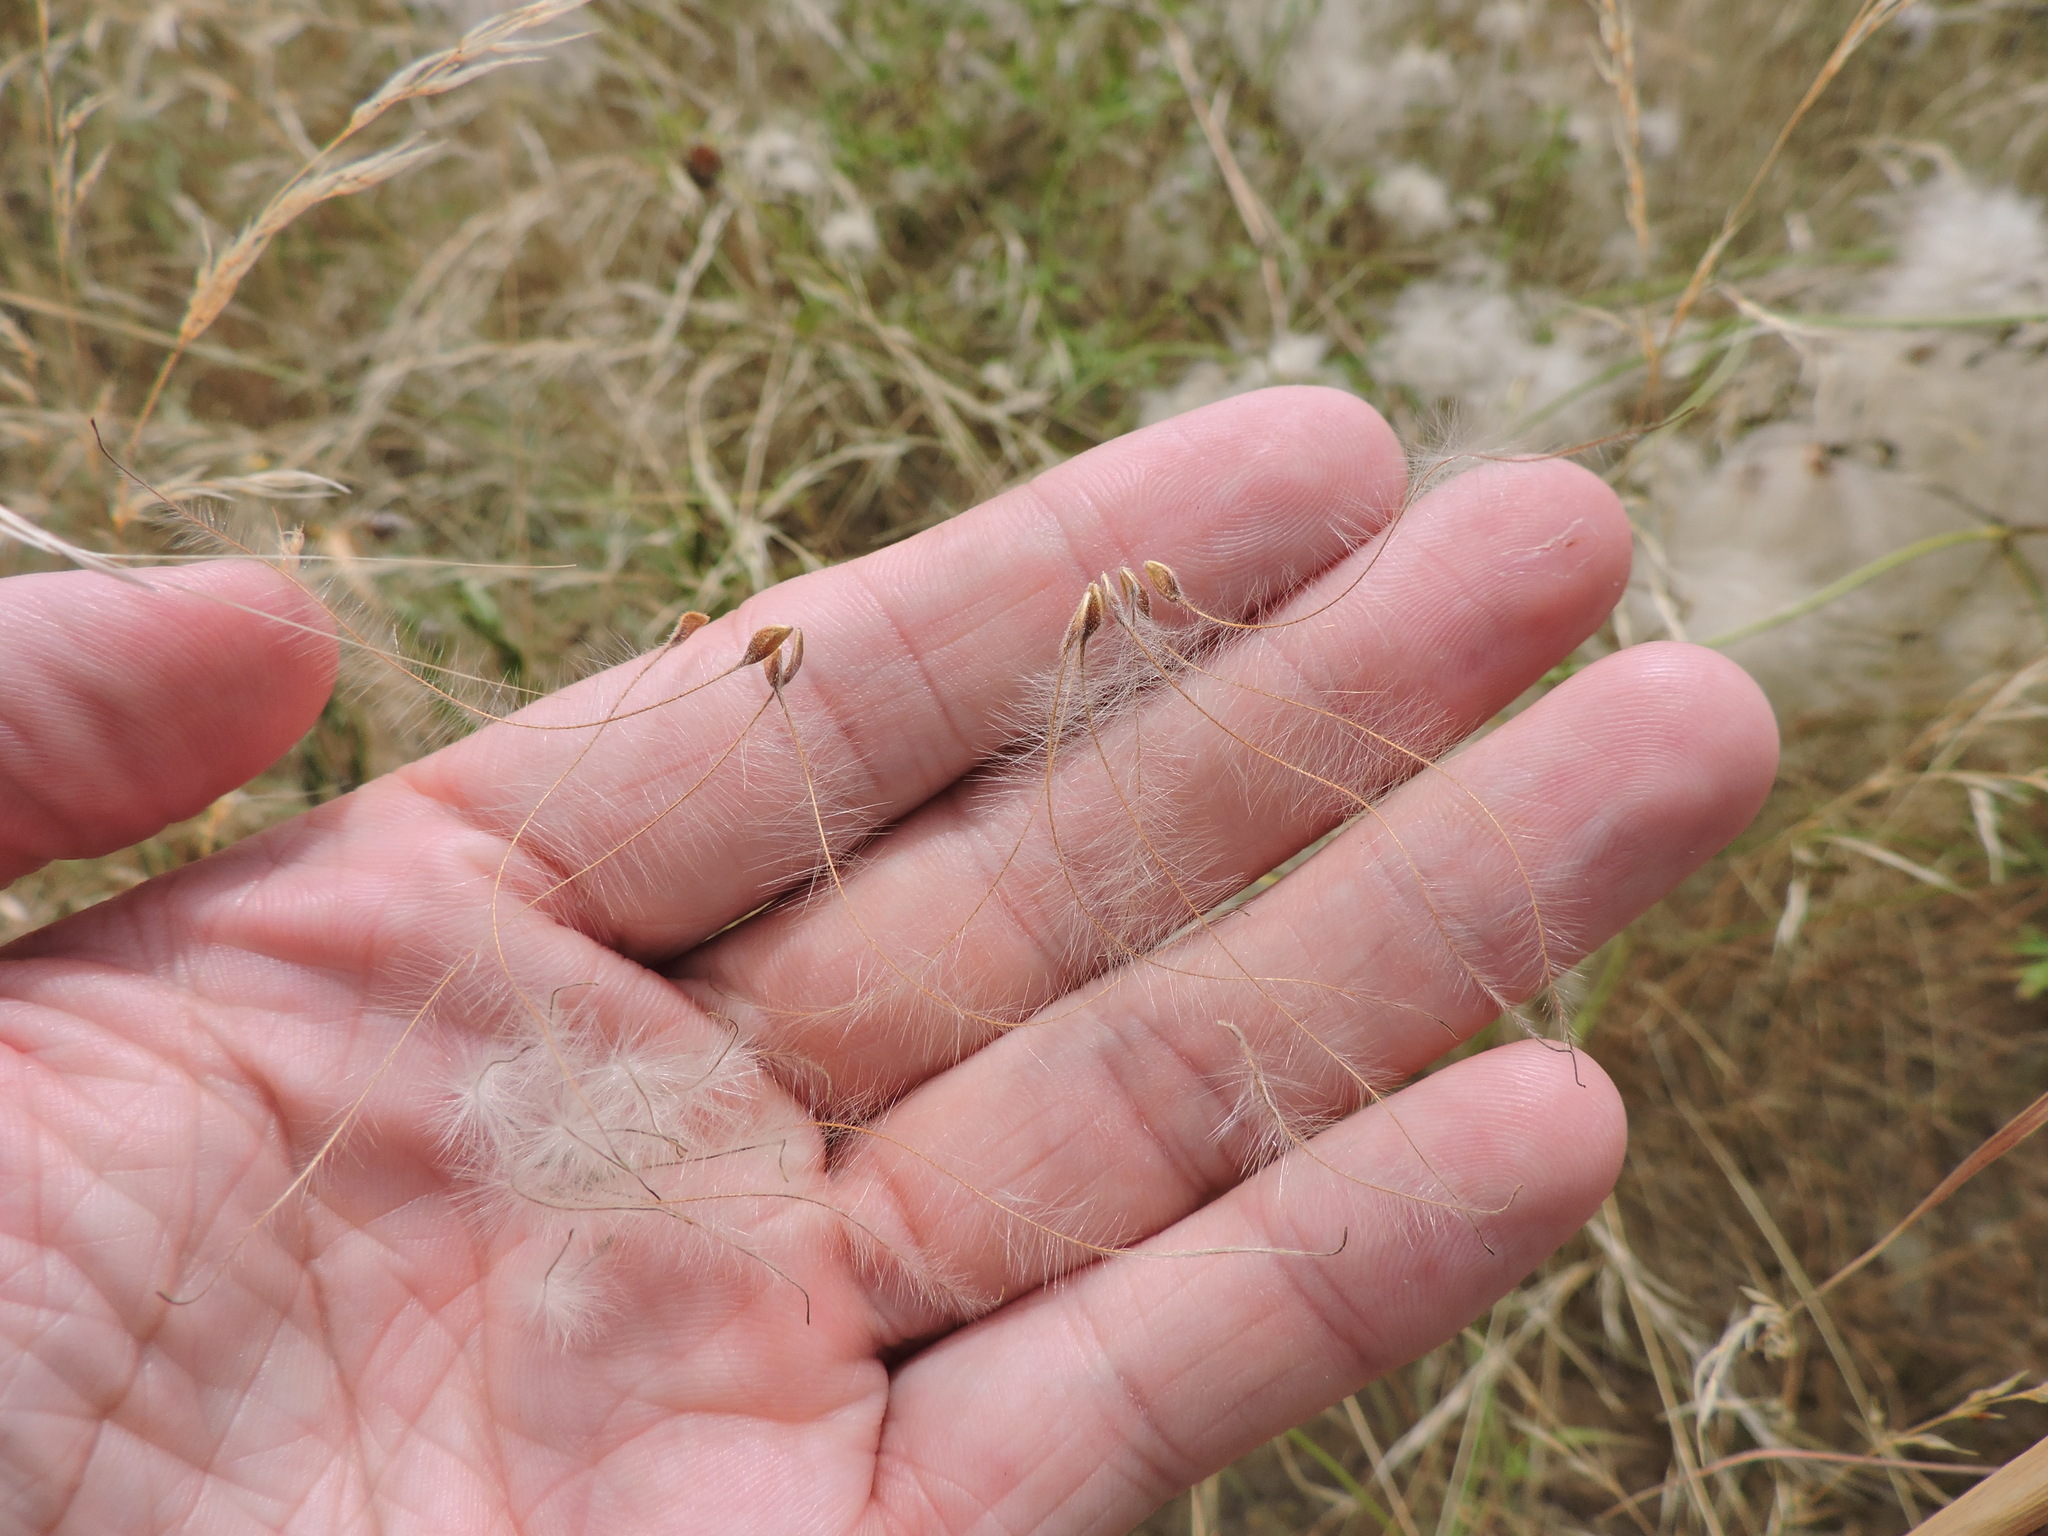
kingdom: Plantae
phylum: Tracheophyta
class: Magnoliopsida
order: Ranunculales
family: Ranunculaceae
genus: Clematis
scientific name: Clematis drummondii
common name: Texas virgin's bower
